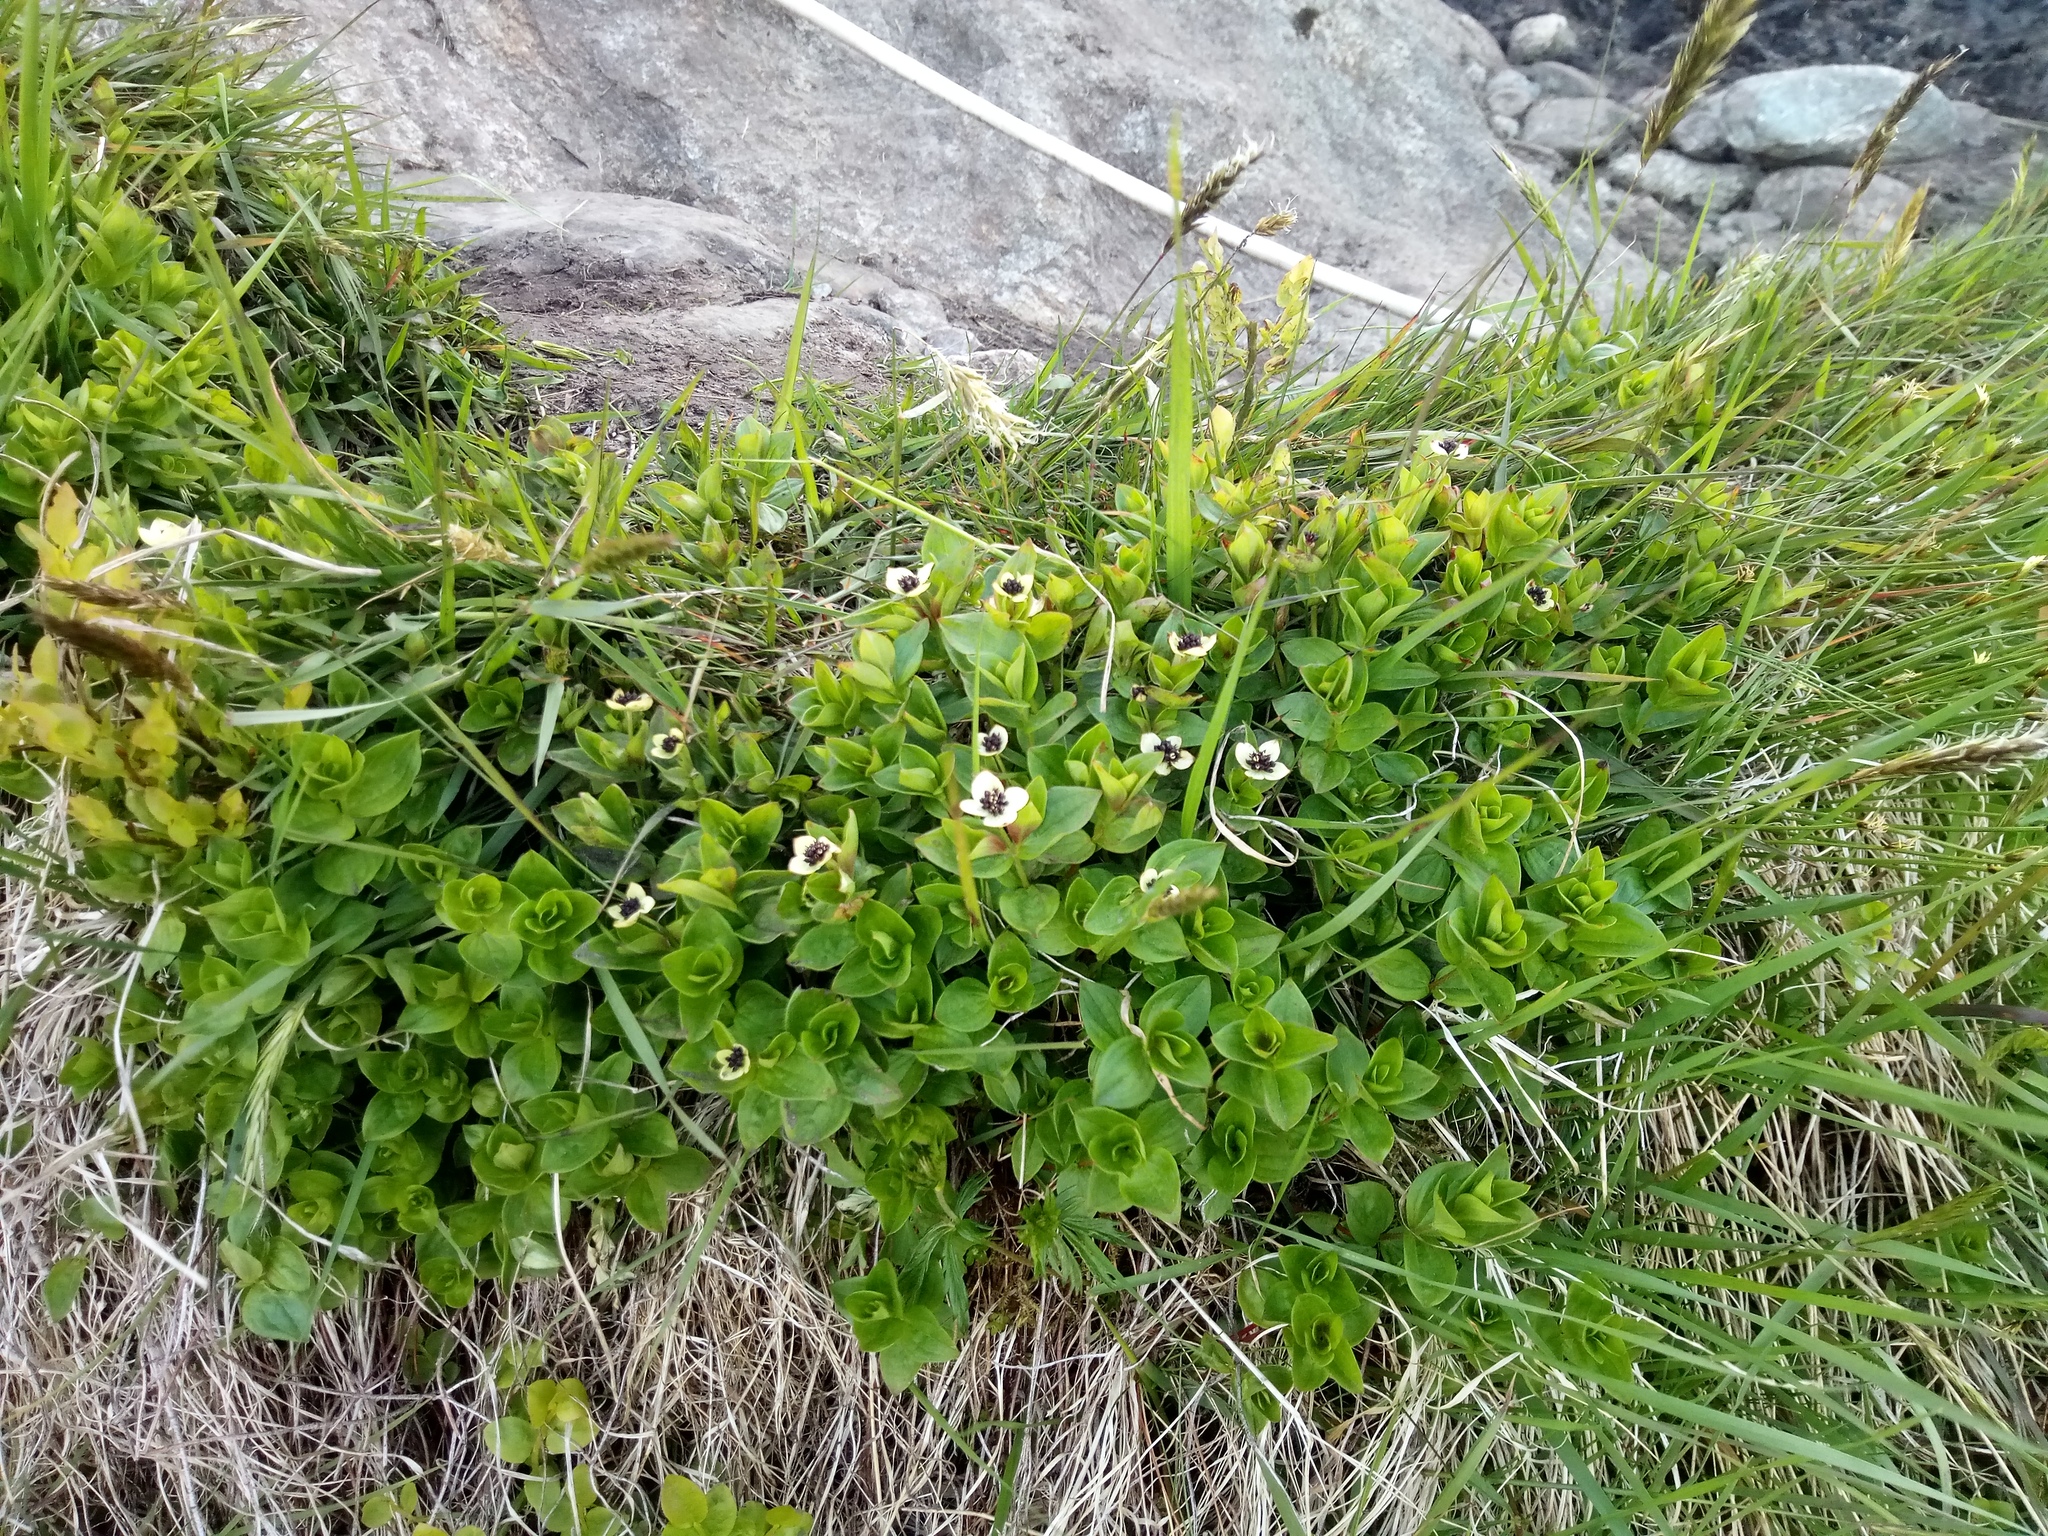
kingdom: Plantae
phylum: Tracheophyta
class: Magnoliopsida
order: Cornales
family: Cornaceae
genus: Cornus
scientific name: Cornus suecica
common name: Dwarf cornel
